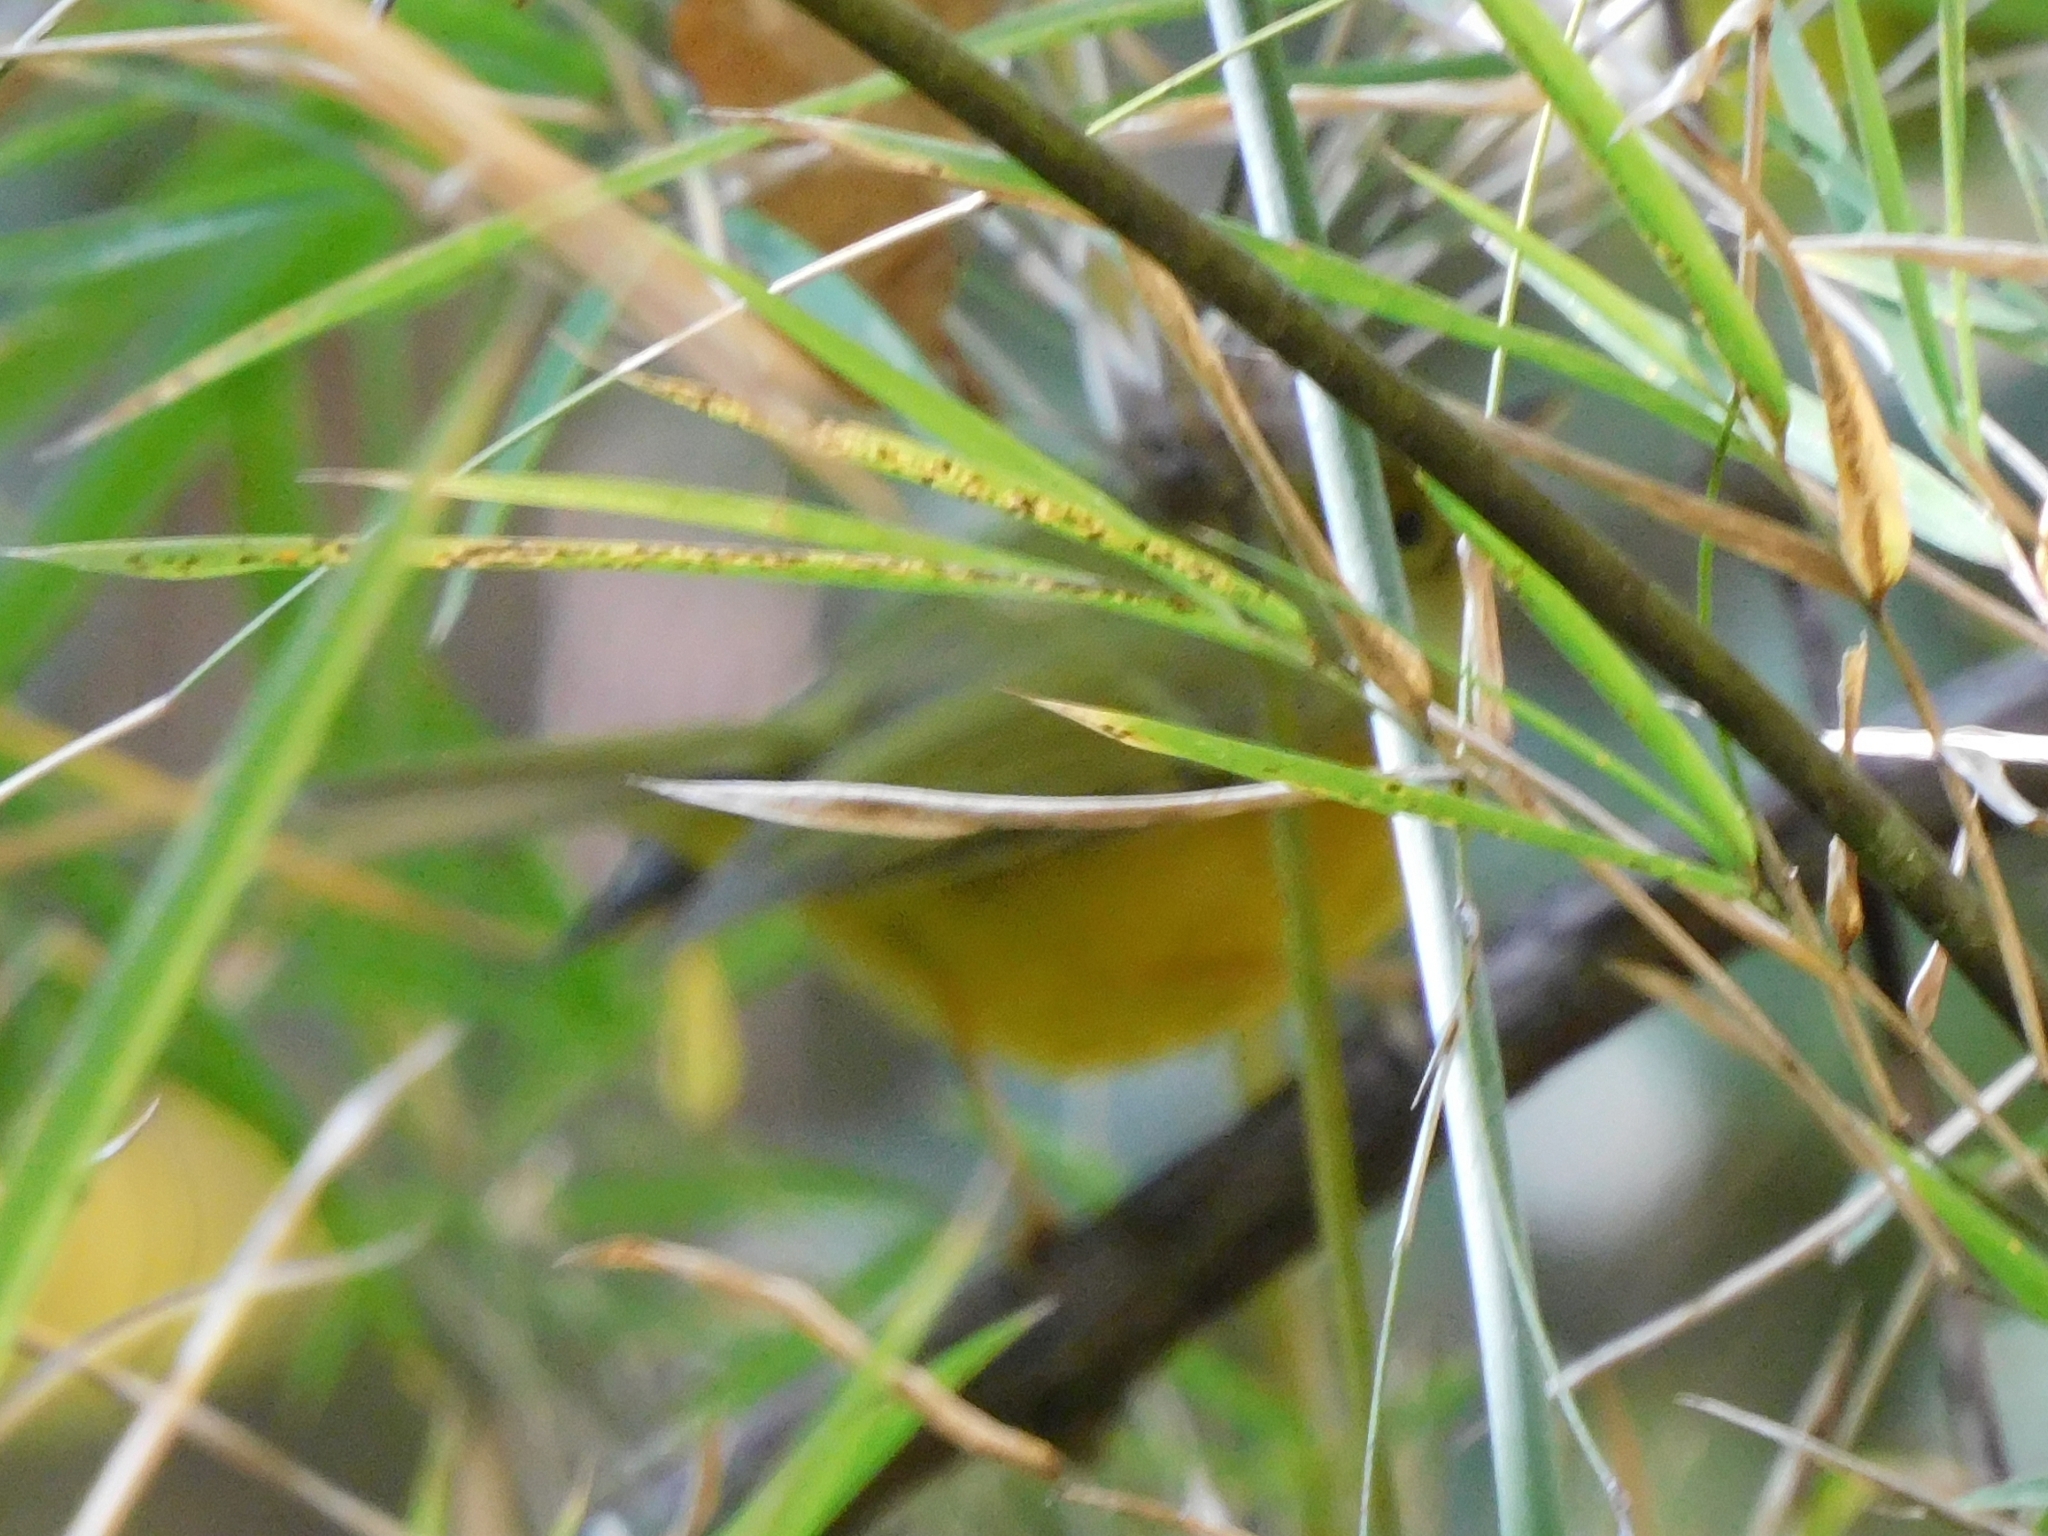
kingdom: Animalia
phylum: Chordata
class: Aves
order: Passeriformes
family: Phylloscopidae
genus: Seicercus
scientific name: Seicercus whistleri
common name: Whistler's warbler
